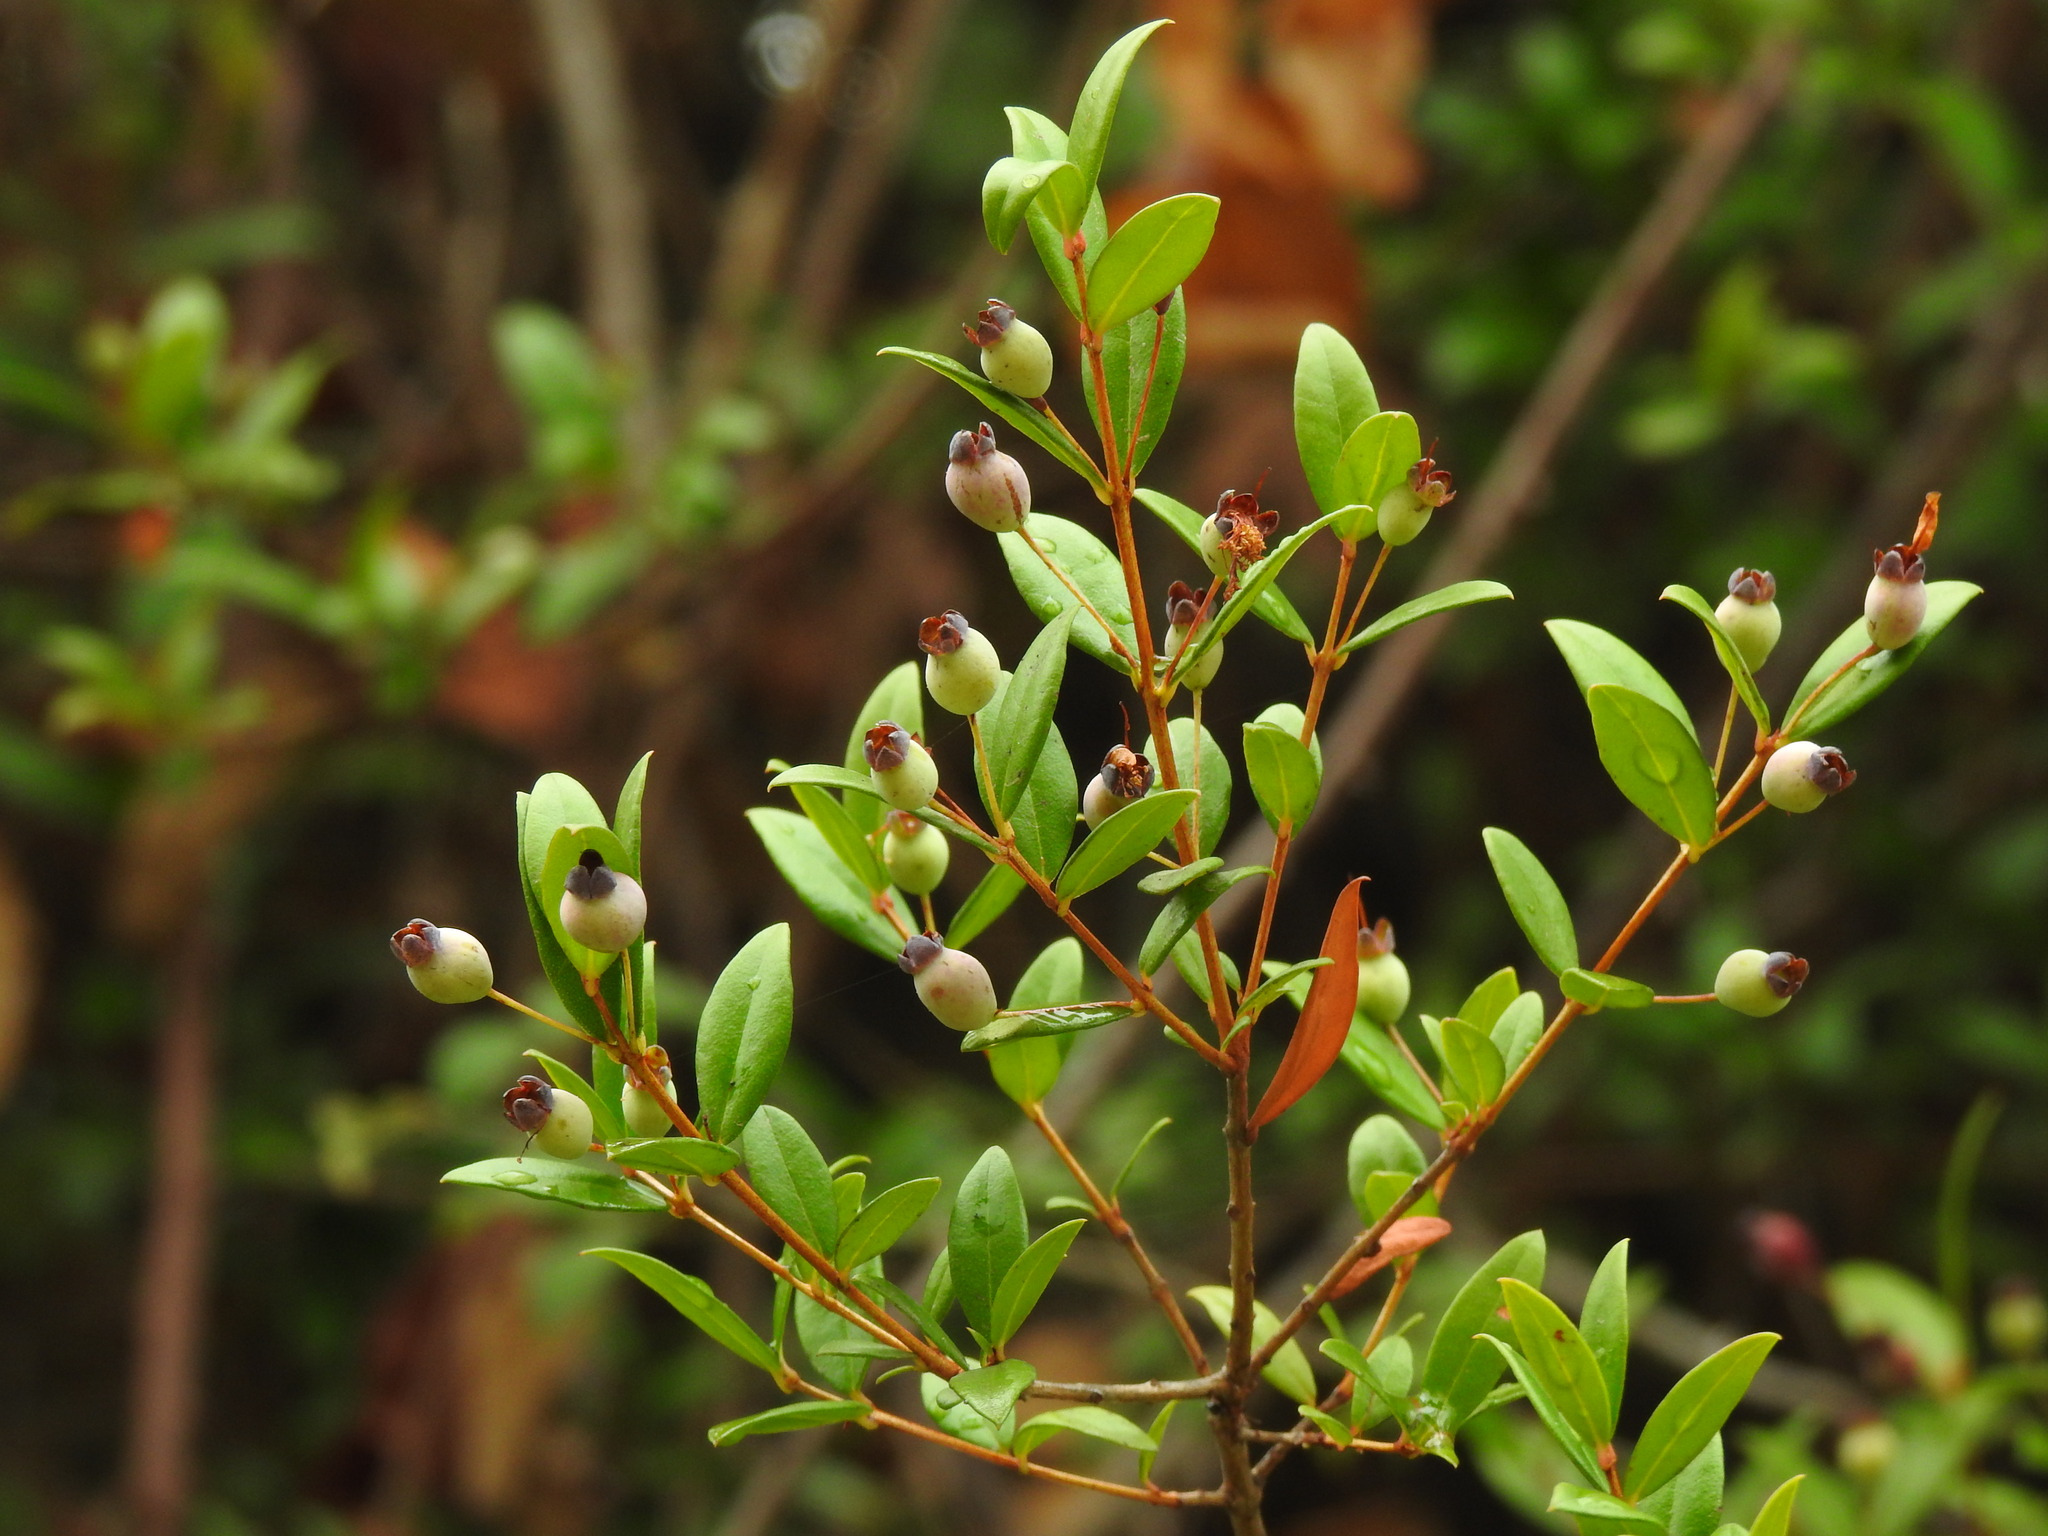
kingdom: Plantae
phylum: Tracheophyta
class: Magnoliopsida
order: Myrtales
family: Myrtaceae
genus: Myrtus
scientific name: Myrtus communis
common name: Myrtle
